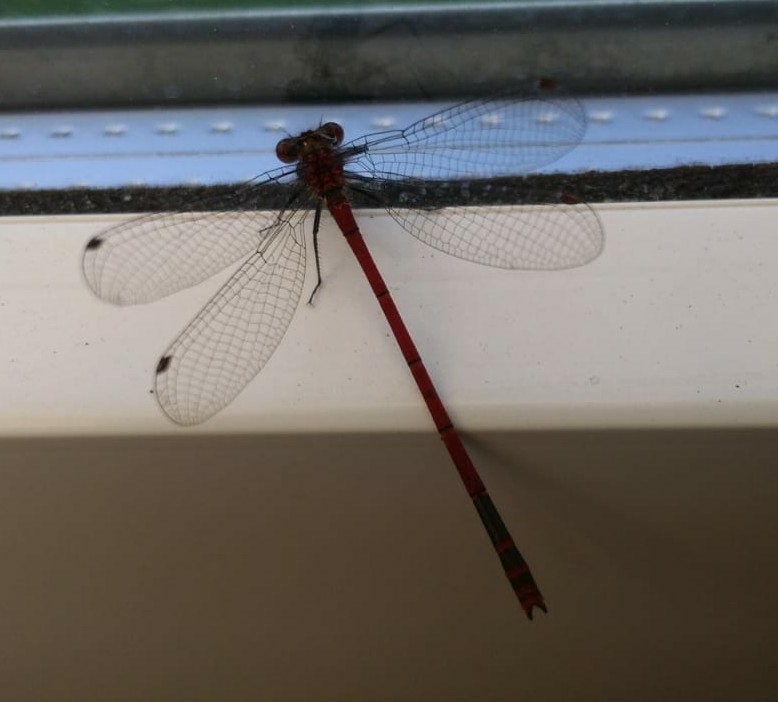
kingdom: Animalia
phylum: Arthropoda
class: Insecta
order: Odonata
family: Coenagrionidae
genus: Pyrrhosoma
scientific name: Pyrrhosoma nymphula
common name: Large red damsel
